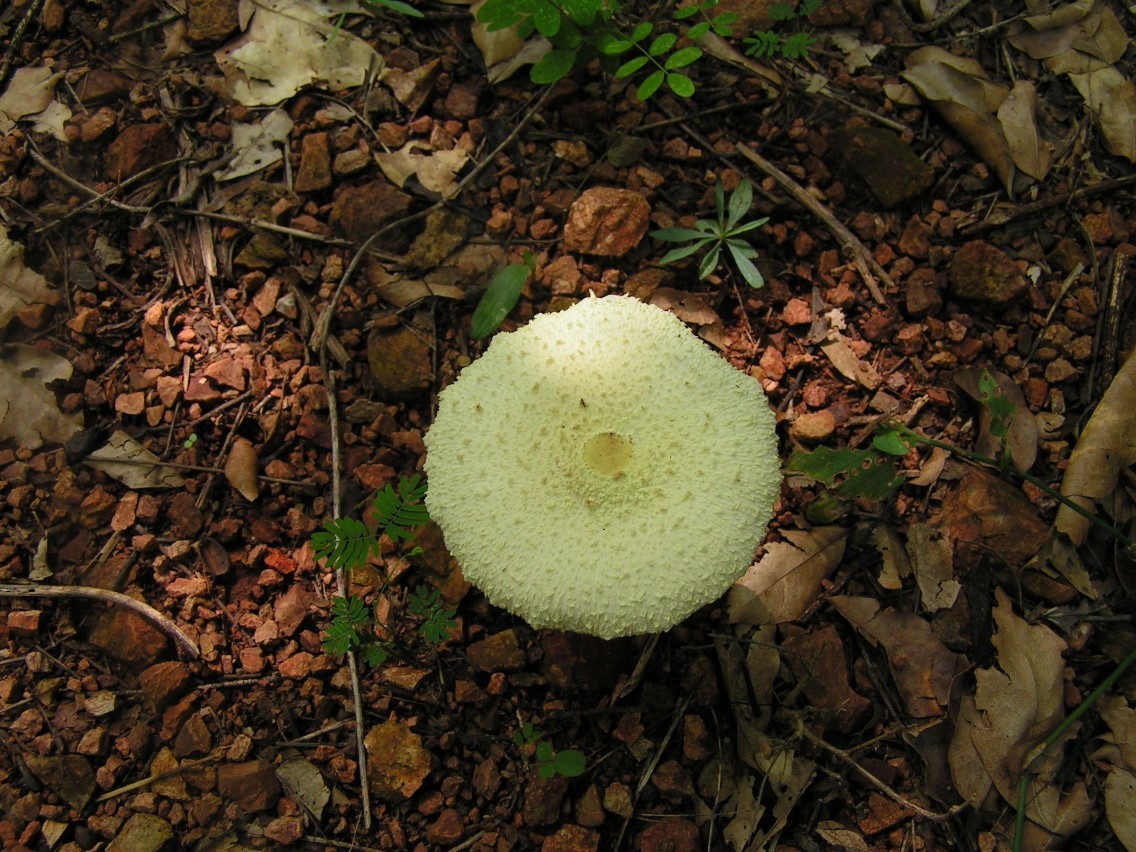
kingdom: Fungi
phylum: Basidiomycota
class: Agaricomycetes
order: Agaricales
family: Agaricaceae
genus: Leucocoprinus
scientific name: Leucocoprinus birnbaumii
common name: Plantpot dapperling
